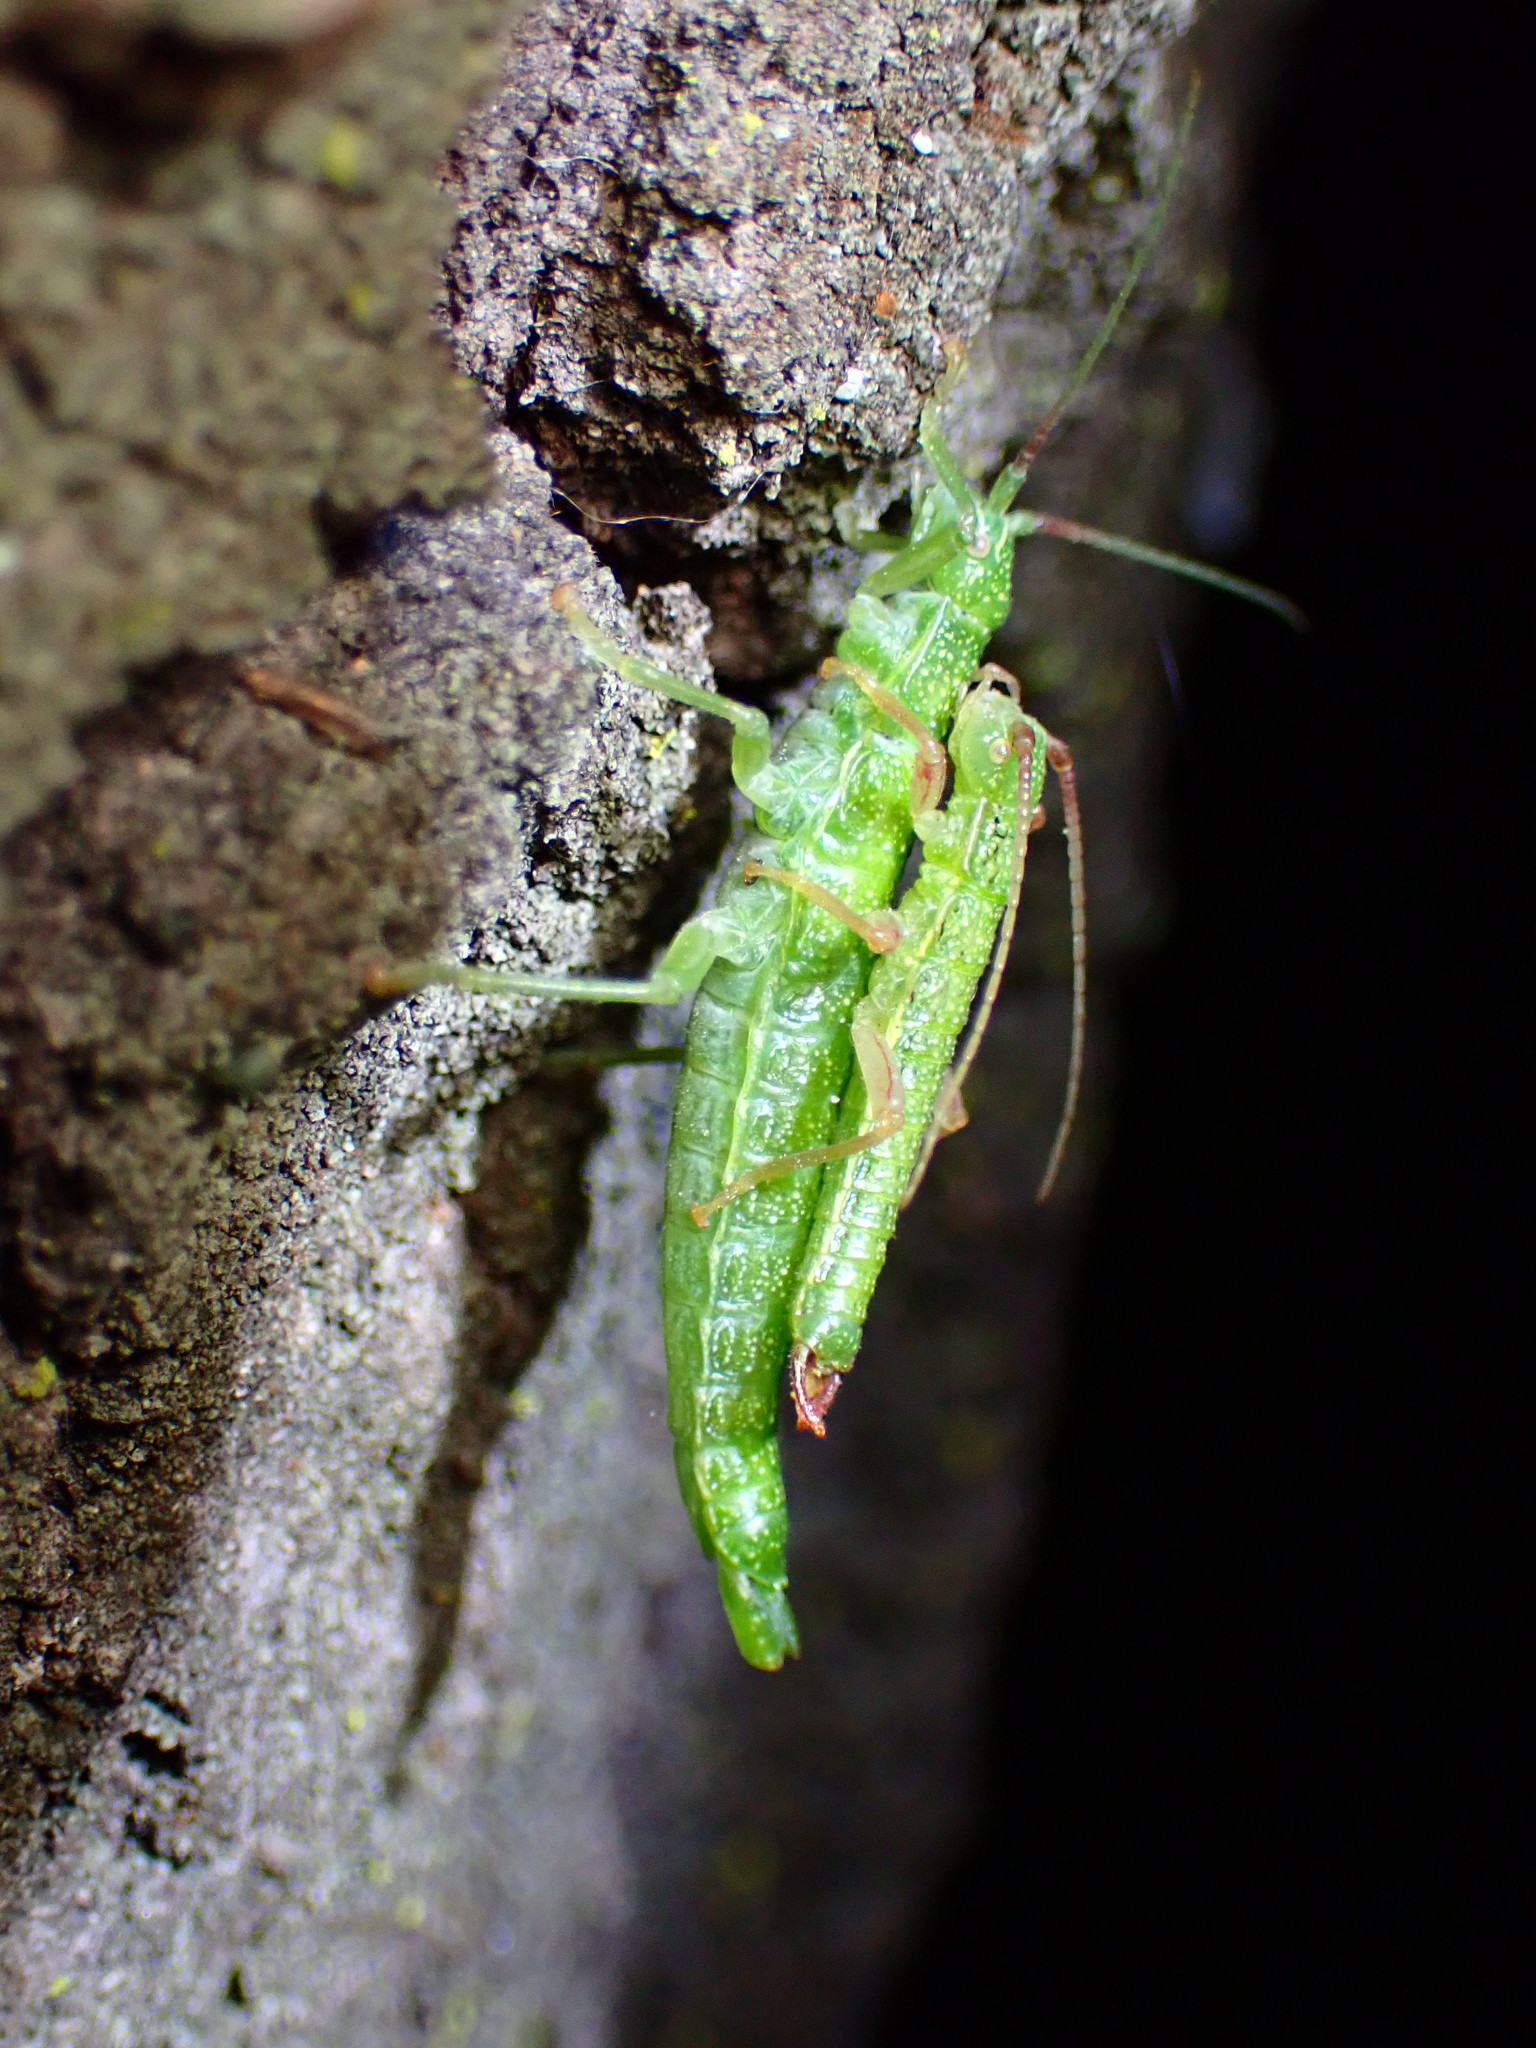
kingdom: Animalia
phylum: Arthropoda
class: Insecta
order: Phasmida
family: Timematidae
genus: Timema
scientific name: Timema californicum
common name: California timema
